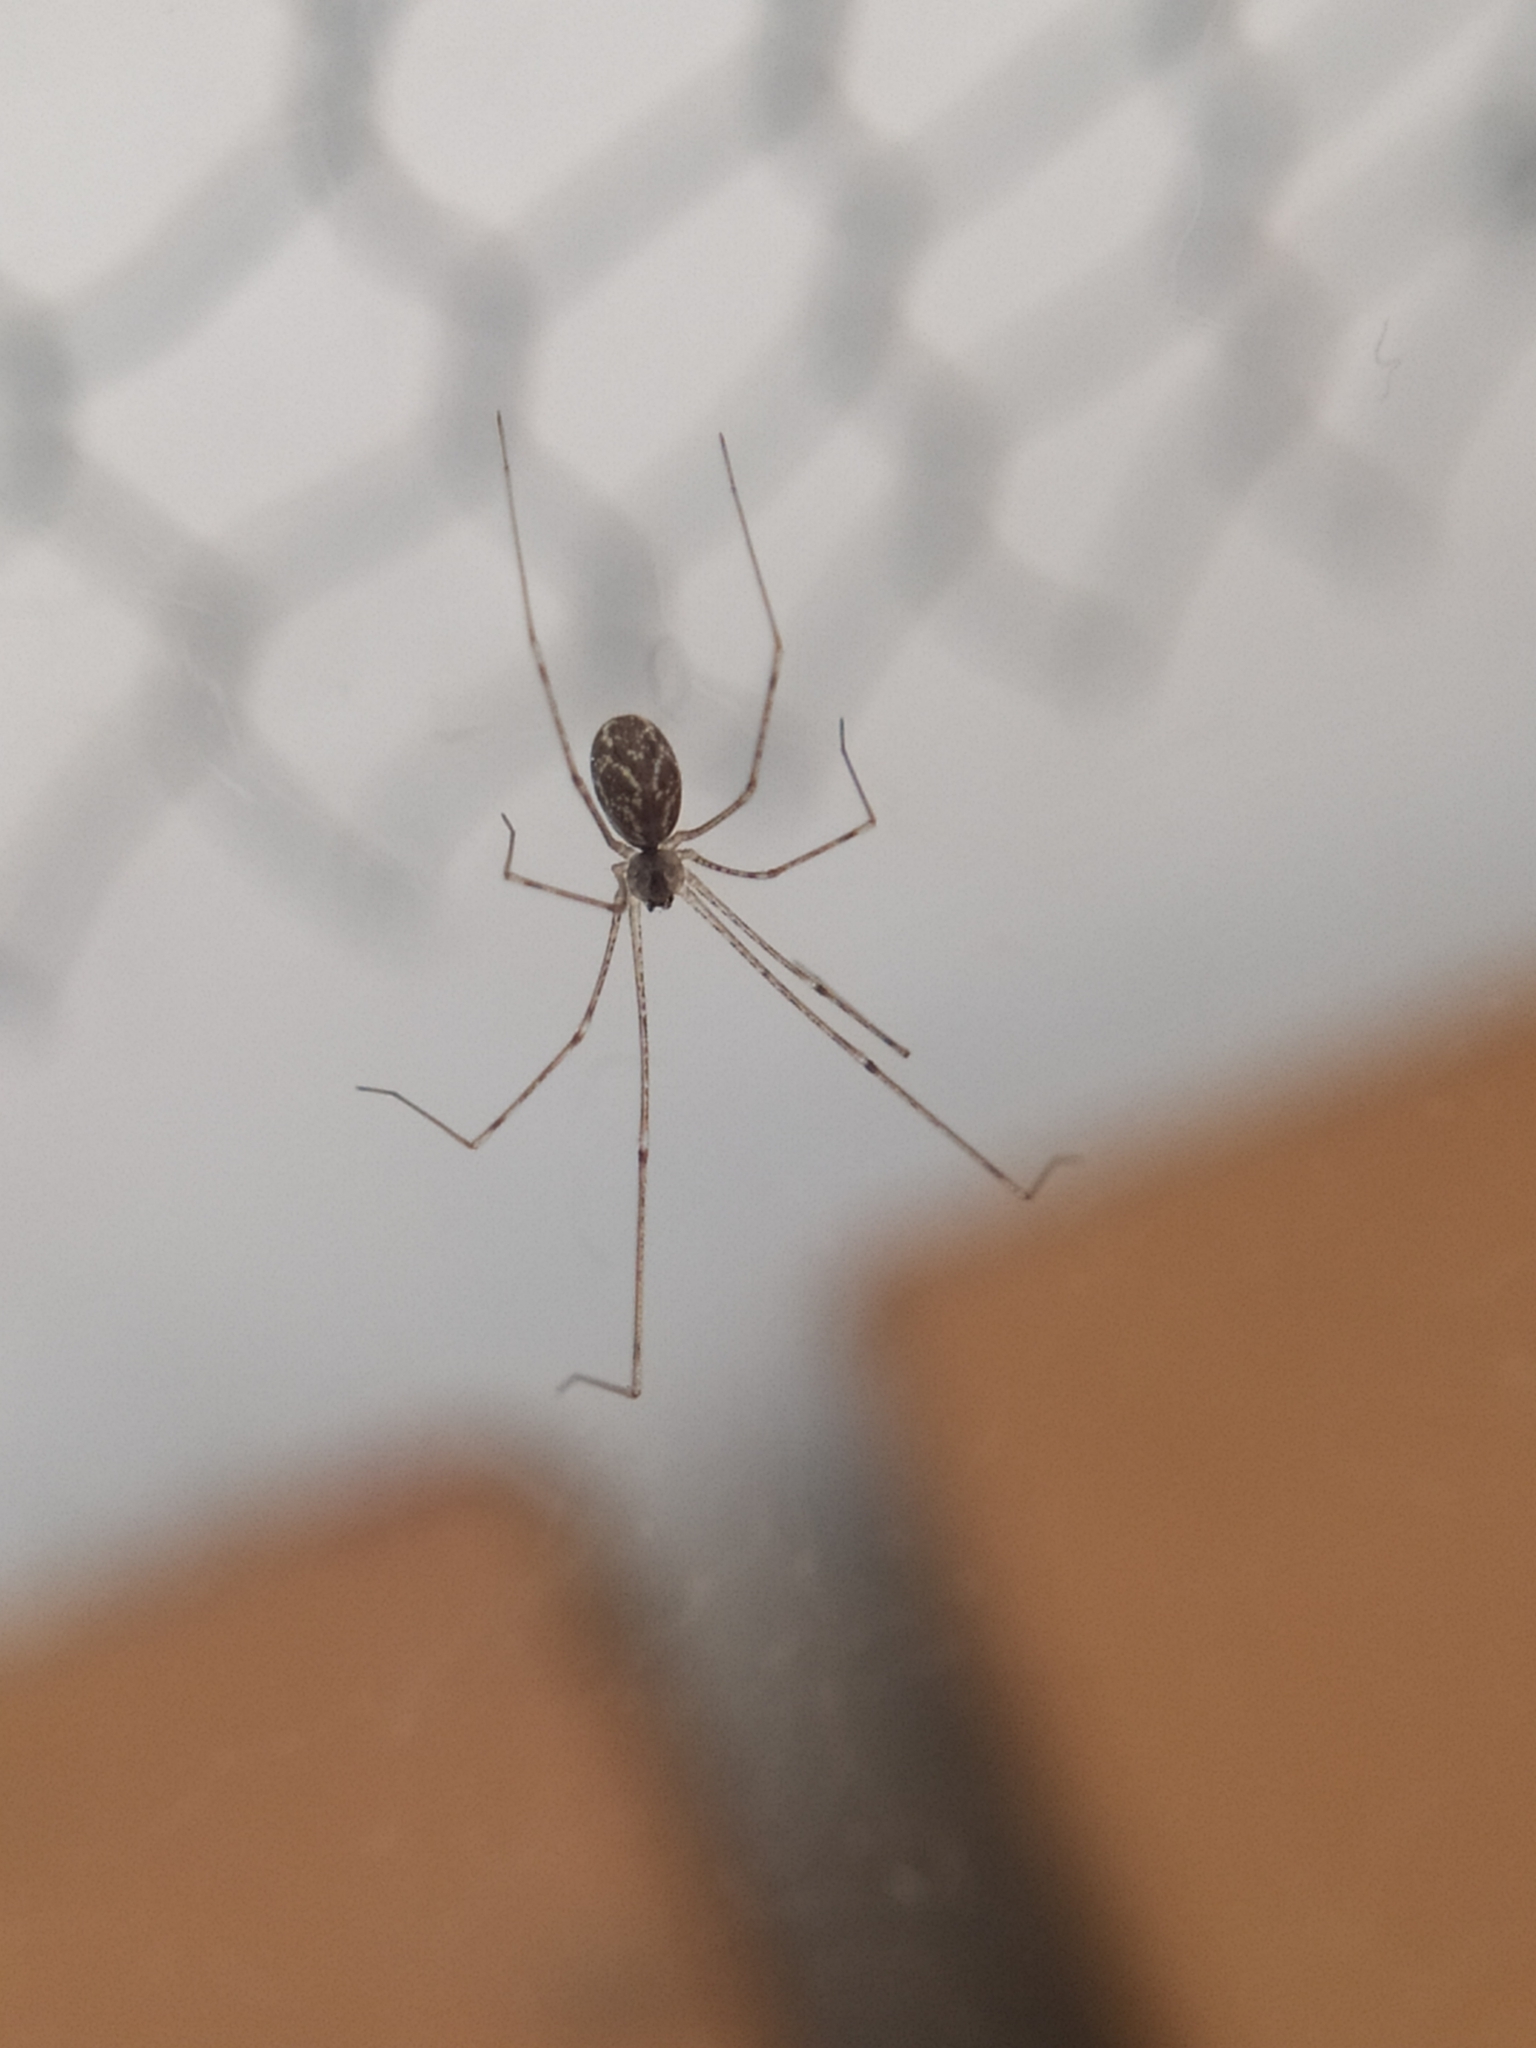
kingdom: Animalia
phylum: Arthropoda
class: Arachnida
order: Araneae
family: Pholcidae
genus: Holocnemus
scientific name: Holocnemus pluchei
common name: Marbled cellar spider
